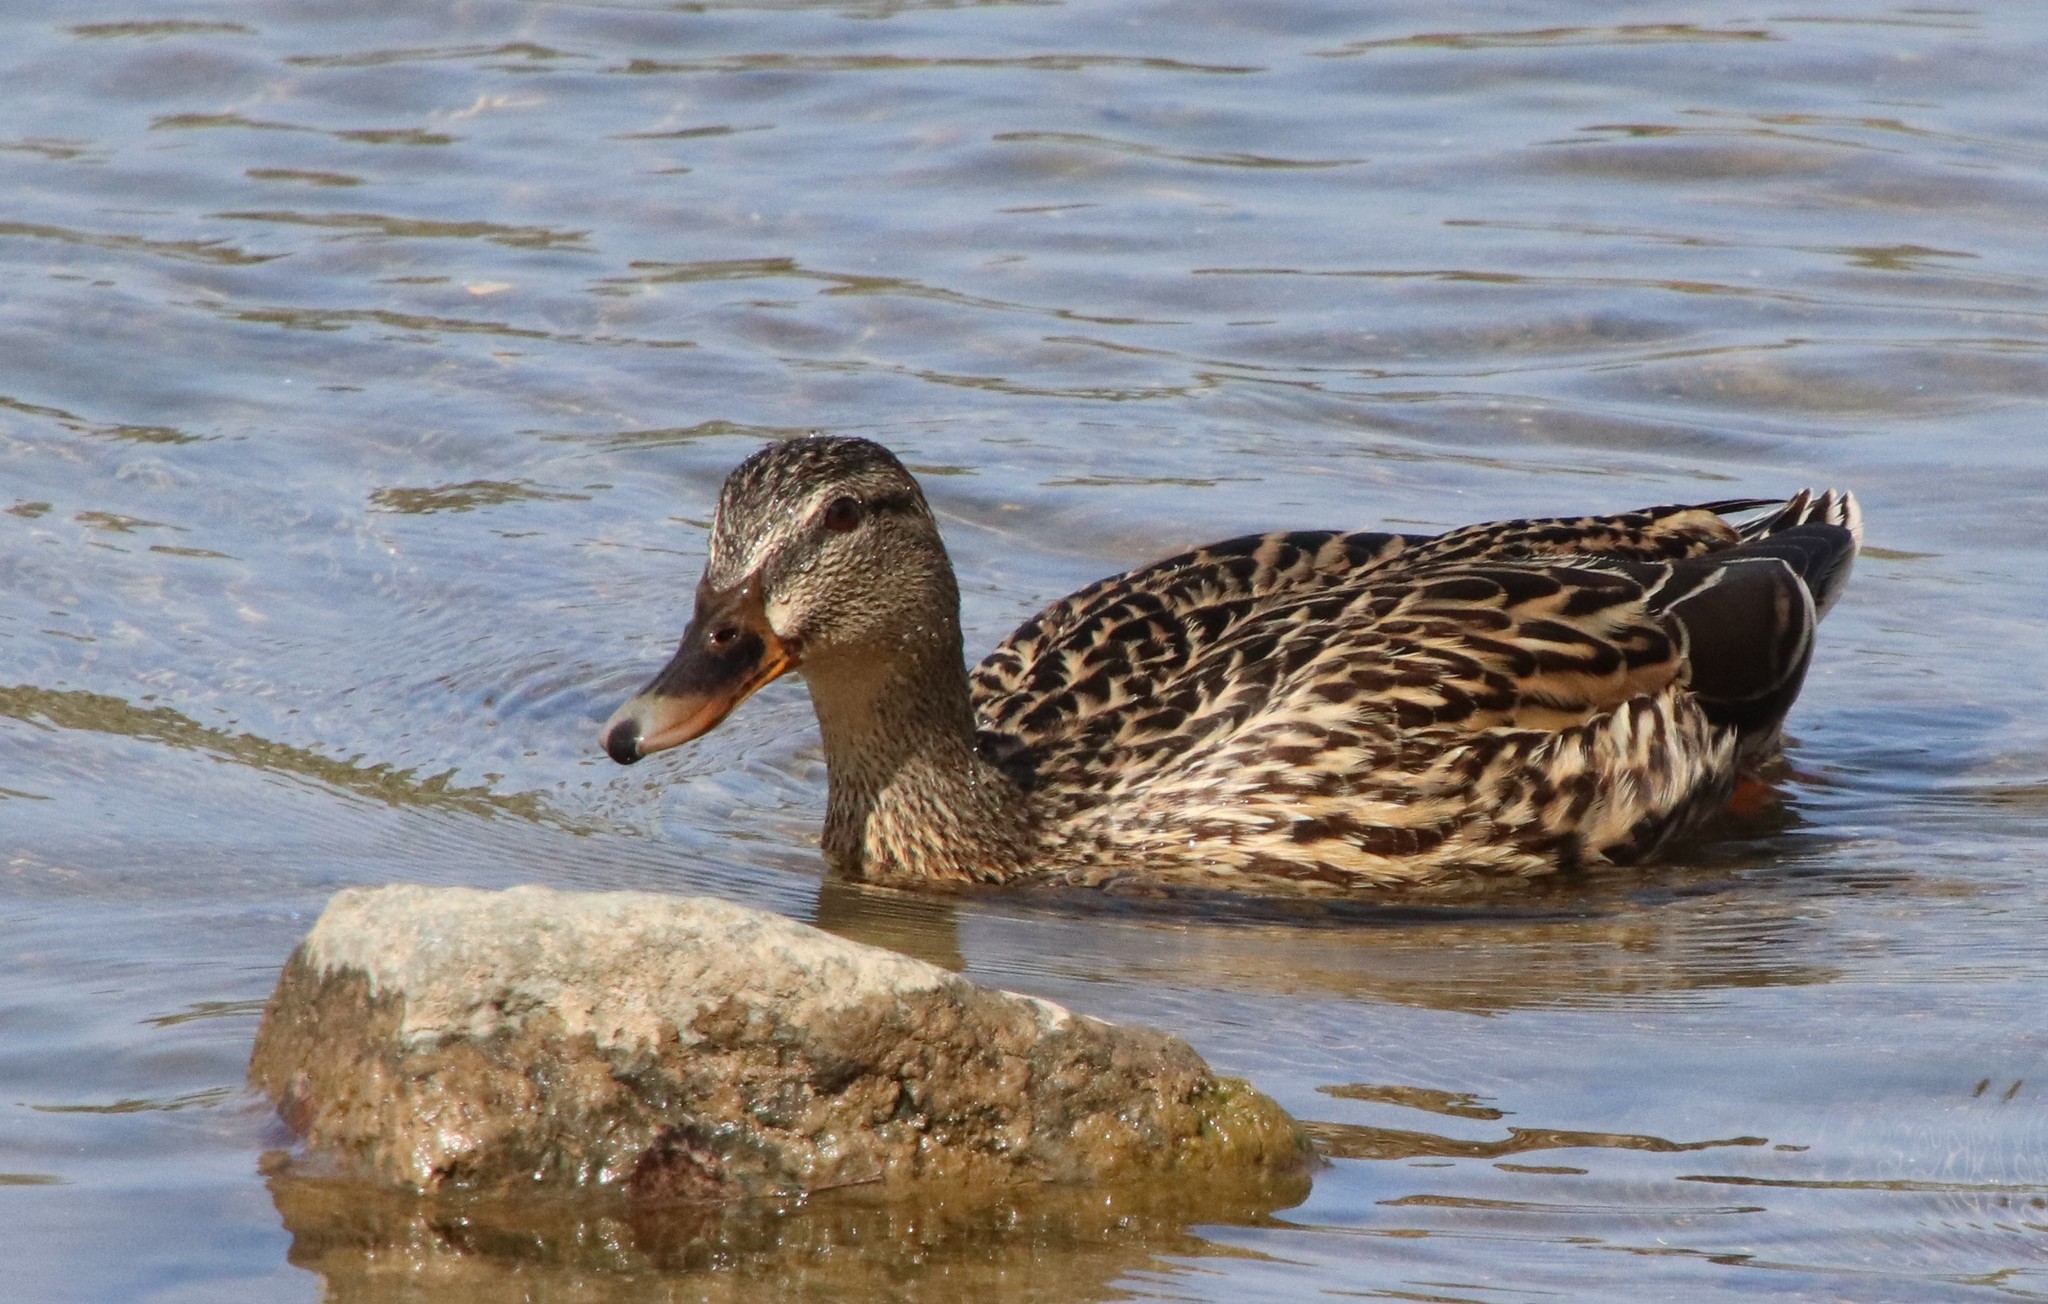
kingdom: Animalia
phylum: Chordata
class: Aves
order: Anseriformes
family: Anatidae
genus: Anas
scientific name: Anas platyrhynchos
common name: Mallard
